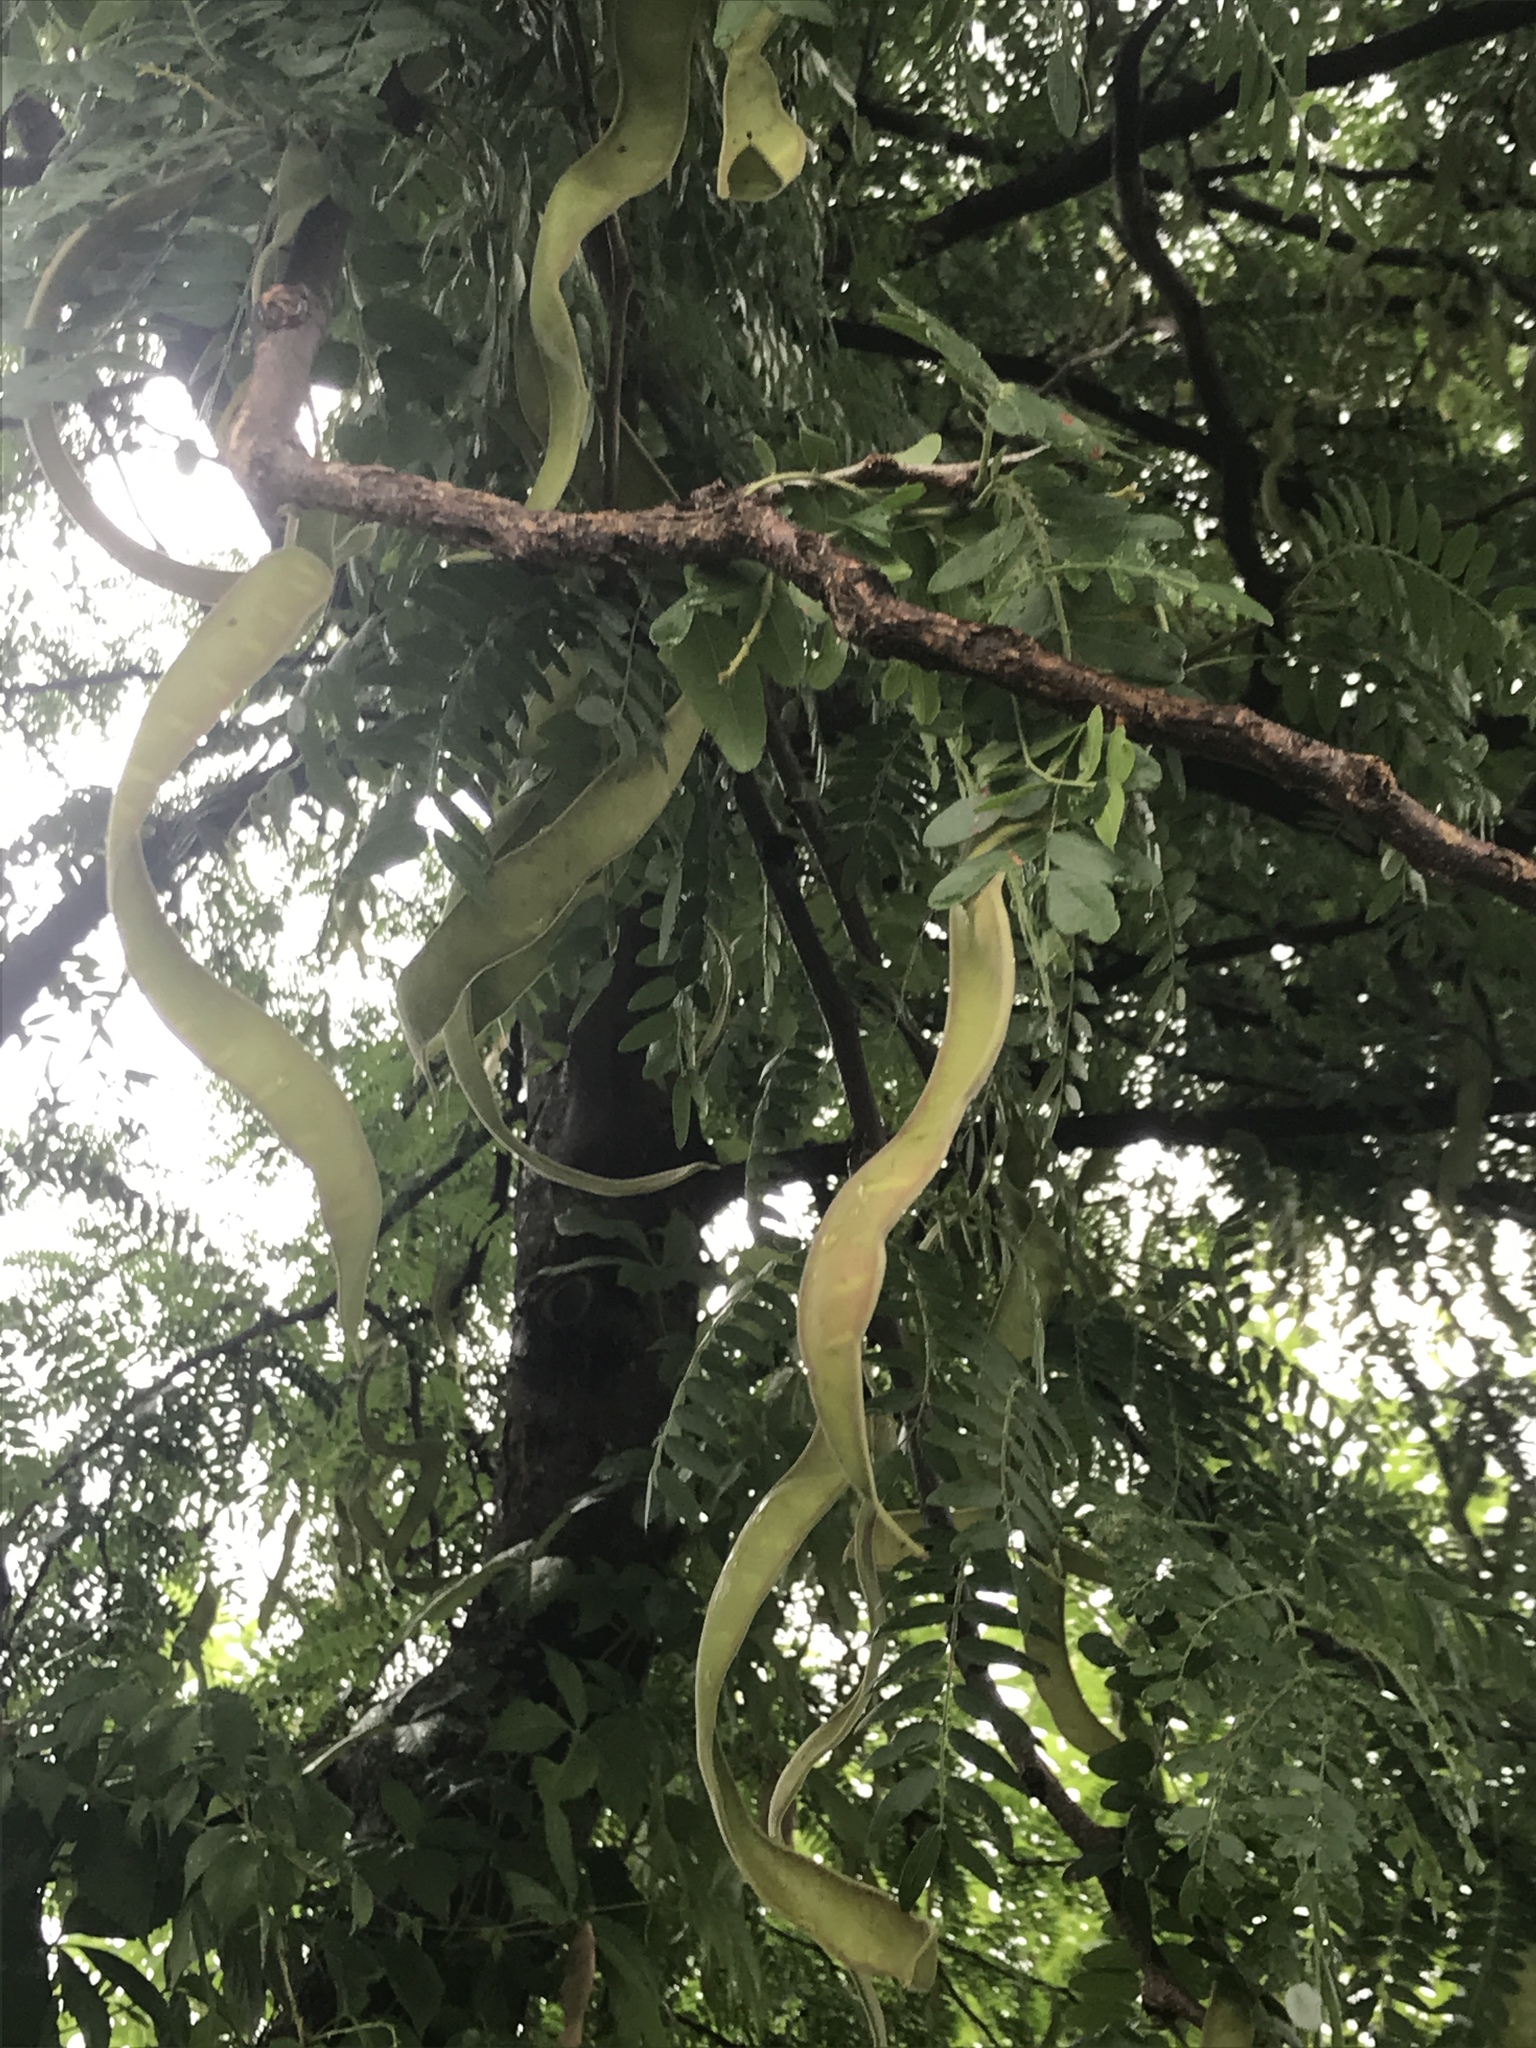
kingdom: Plantae
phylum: Tracheophyta
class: Magnoliopsida
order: Fabales
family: Fabaceae
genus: Gleditsia
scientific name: Gleditsia triacanthos
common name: Common honeylocust
